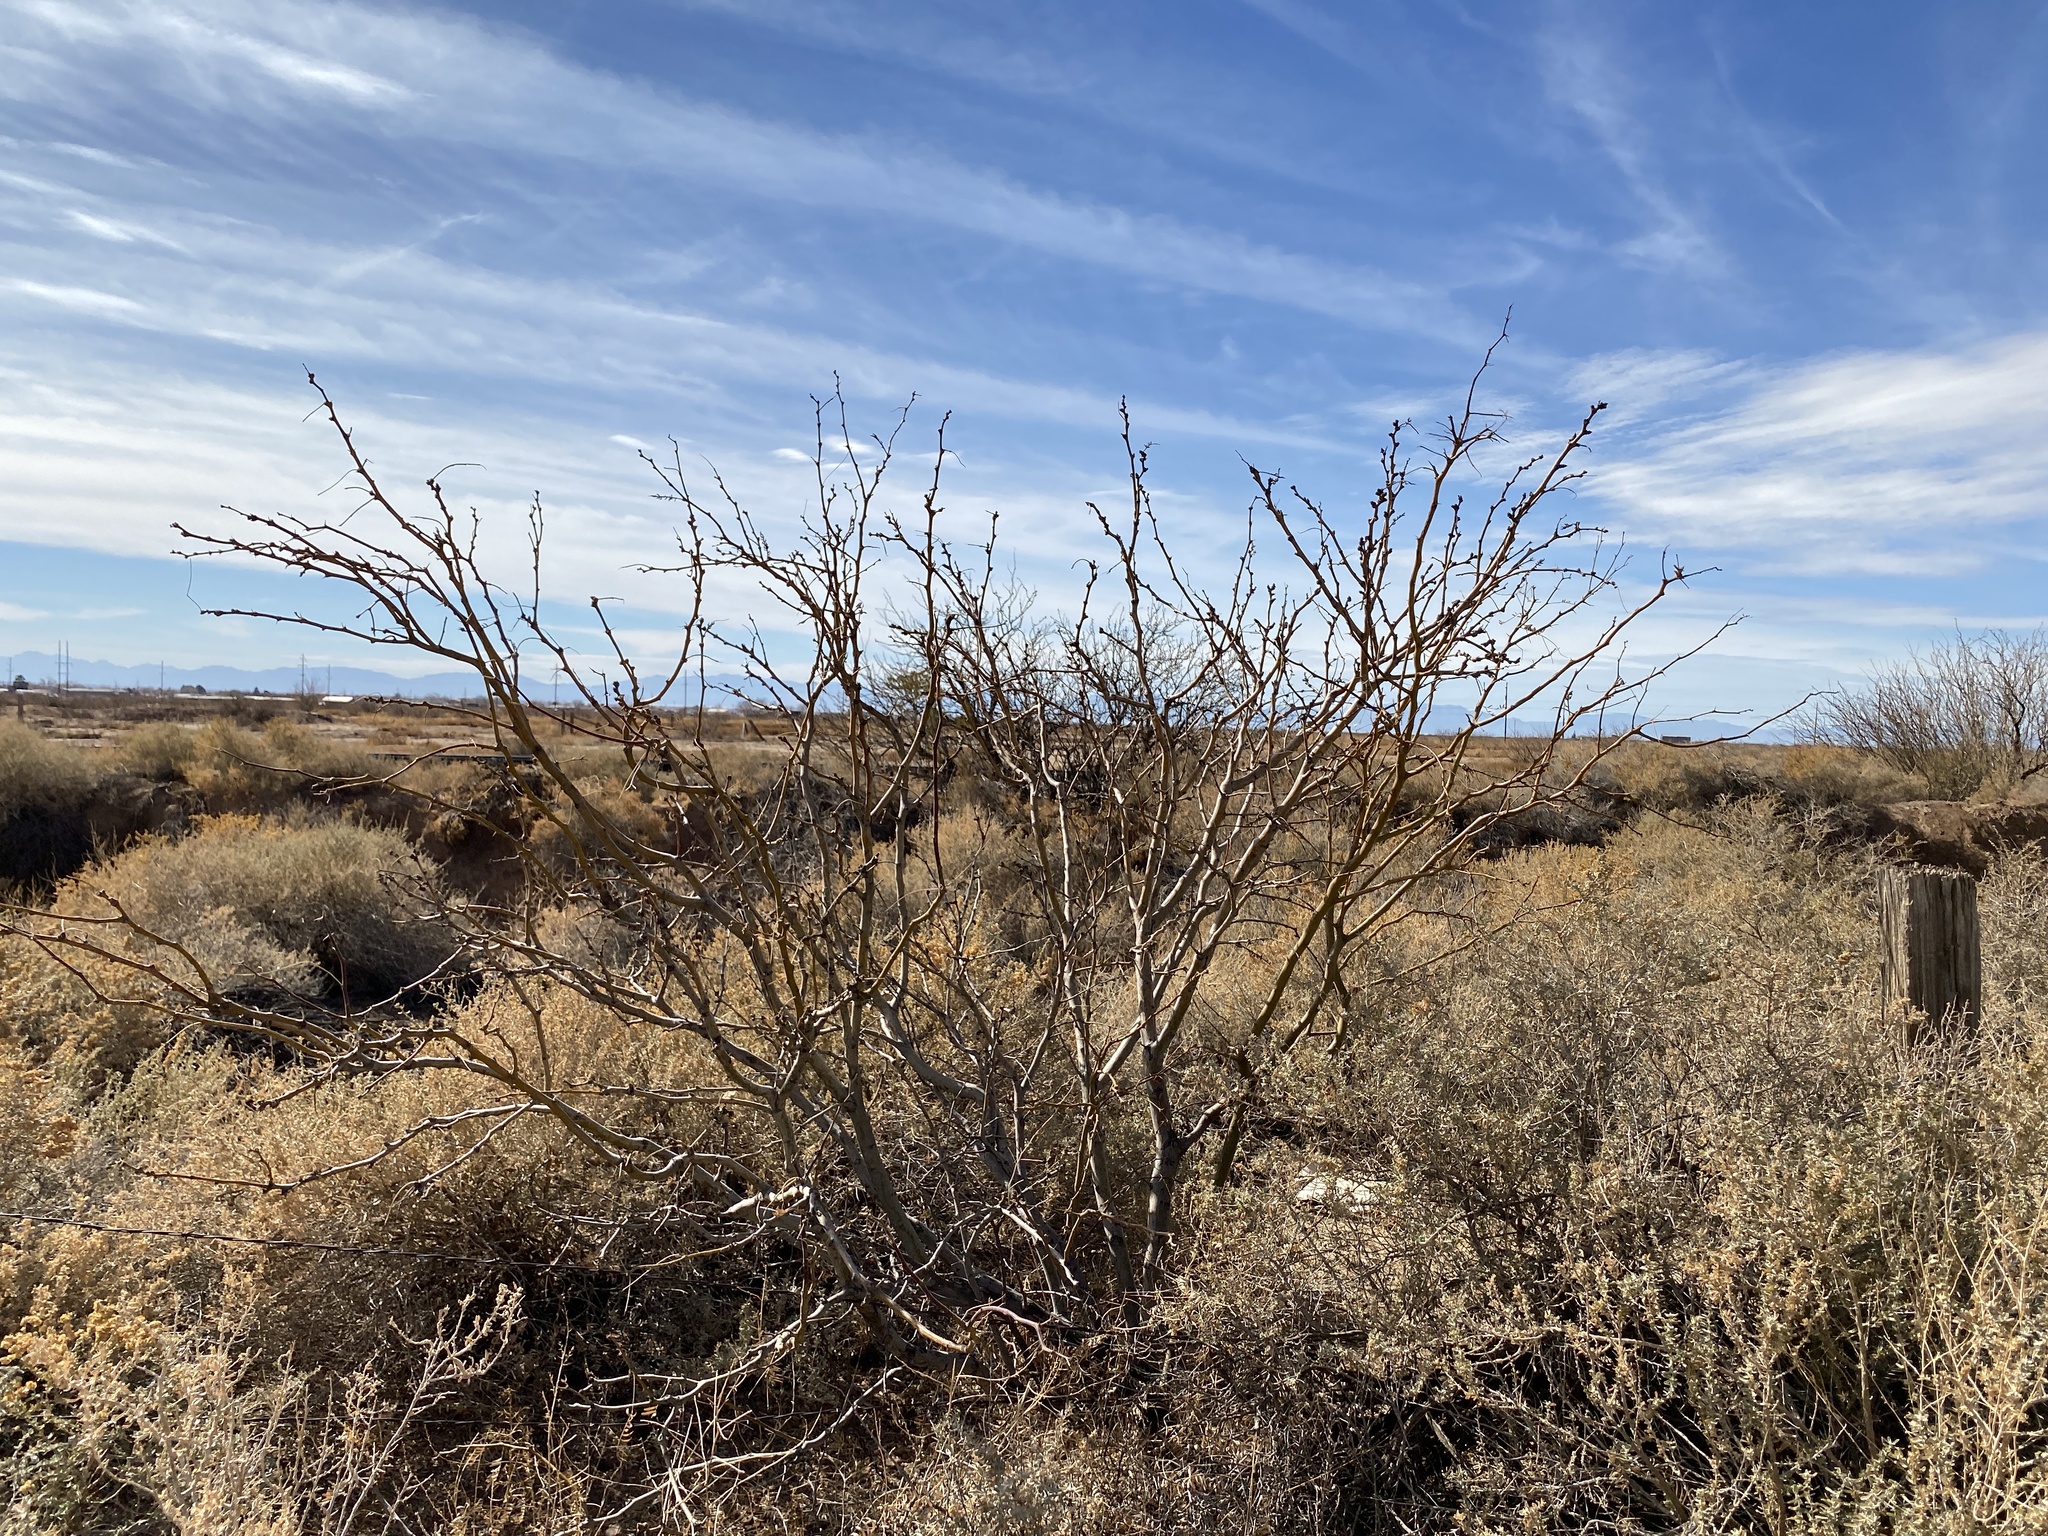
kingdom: Plantae
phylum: Tracheophyta
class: Magnoliopsida
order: Fabales
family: Fabaceae
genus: Prosopis
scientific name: Prosopis glandulosa
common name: Honey mesquite
